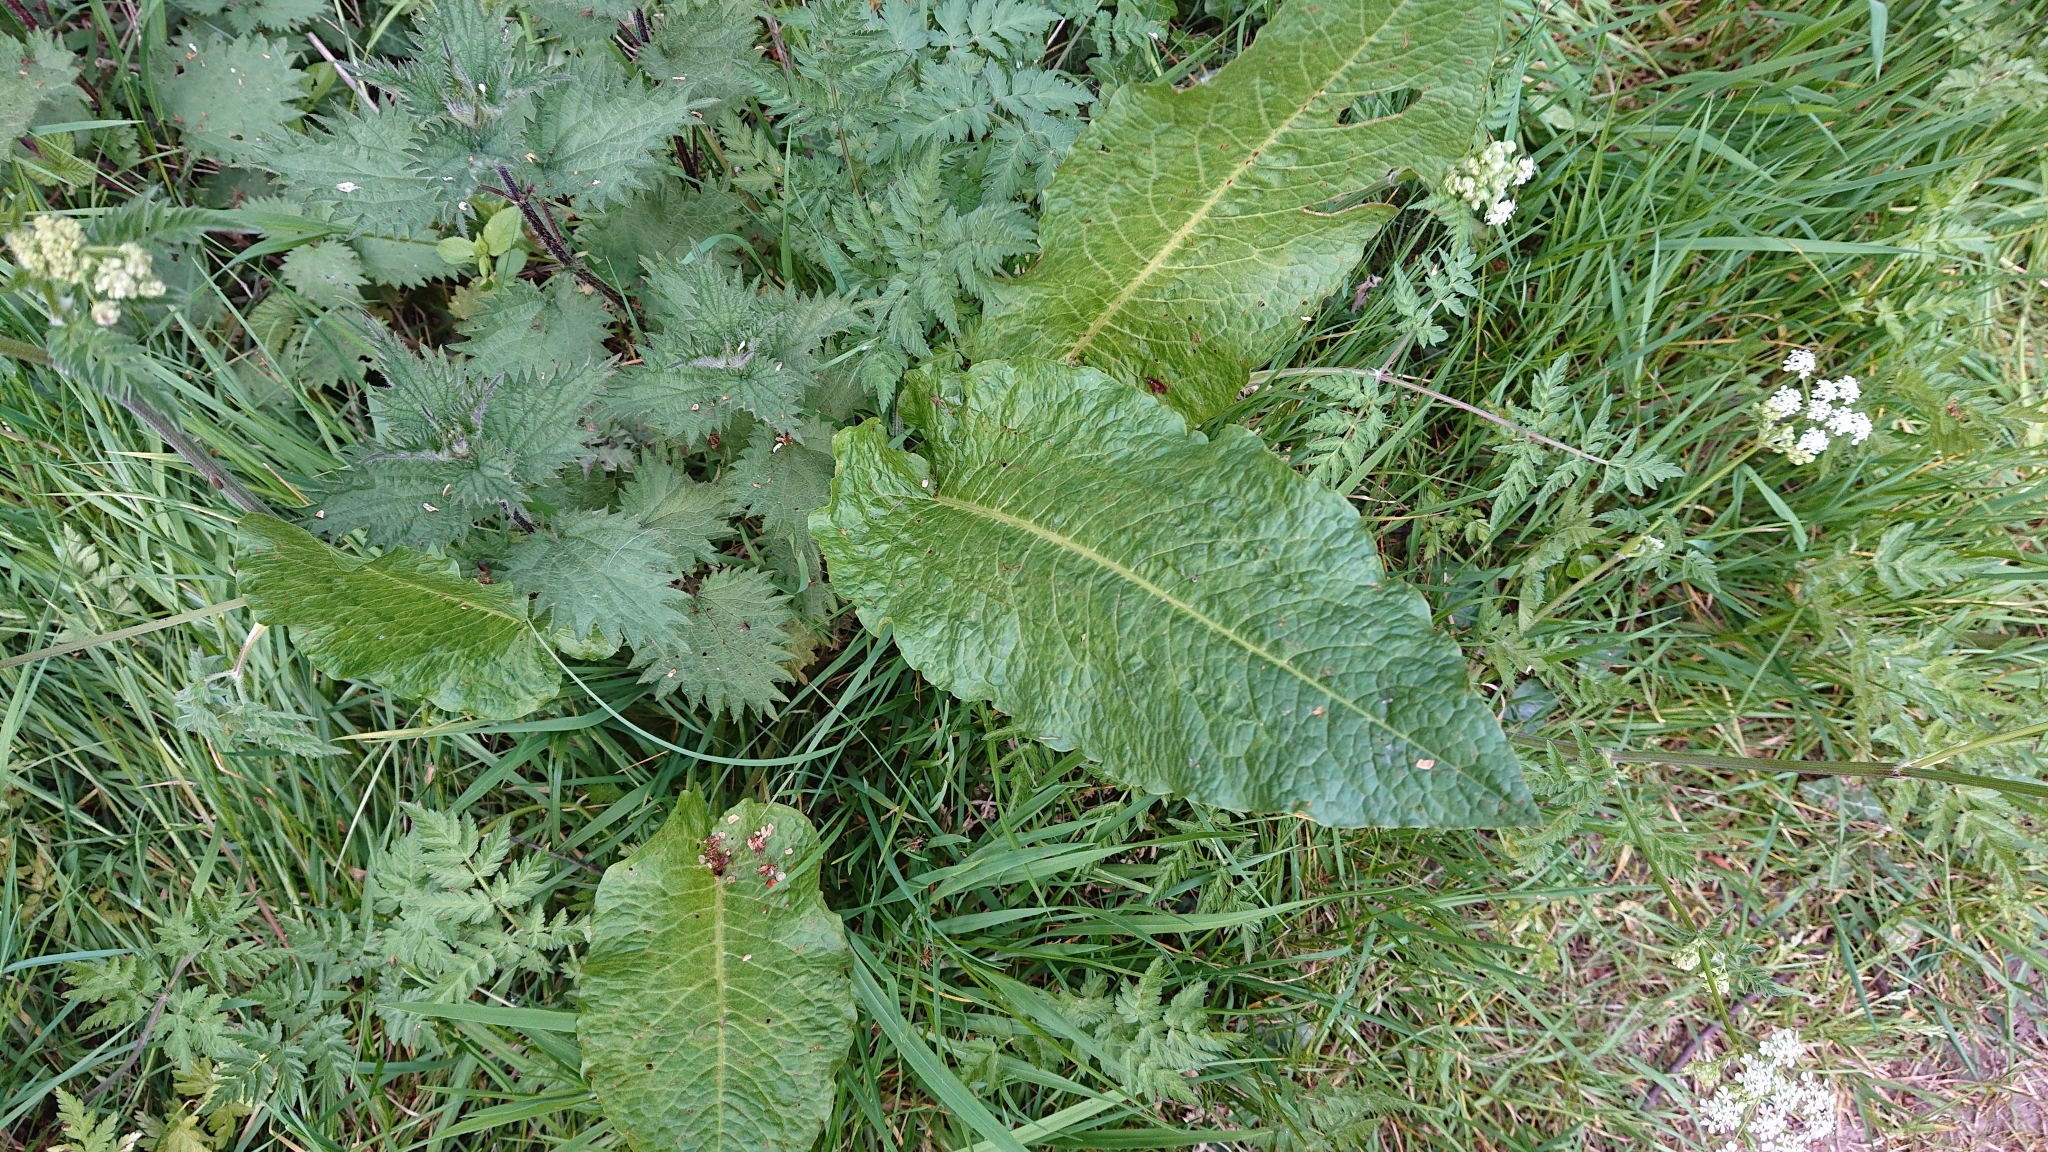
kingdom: Plantae
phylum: Tracheophyta
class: Magnoliopsida
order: Caryophyllales
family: Polygonaceae
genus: Rumex
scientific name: Rumex obtusifolius
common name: Bitter dock
